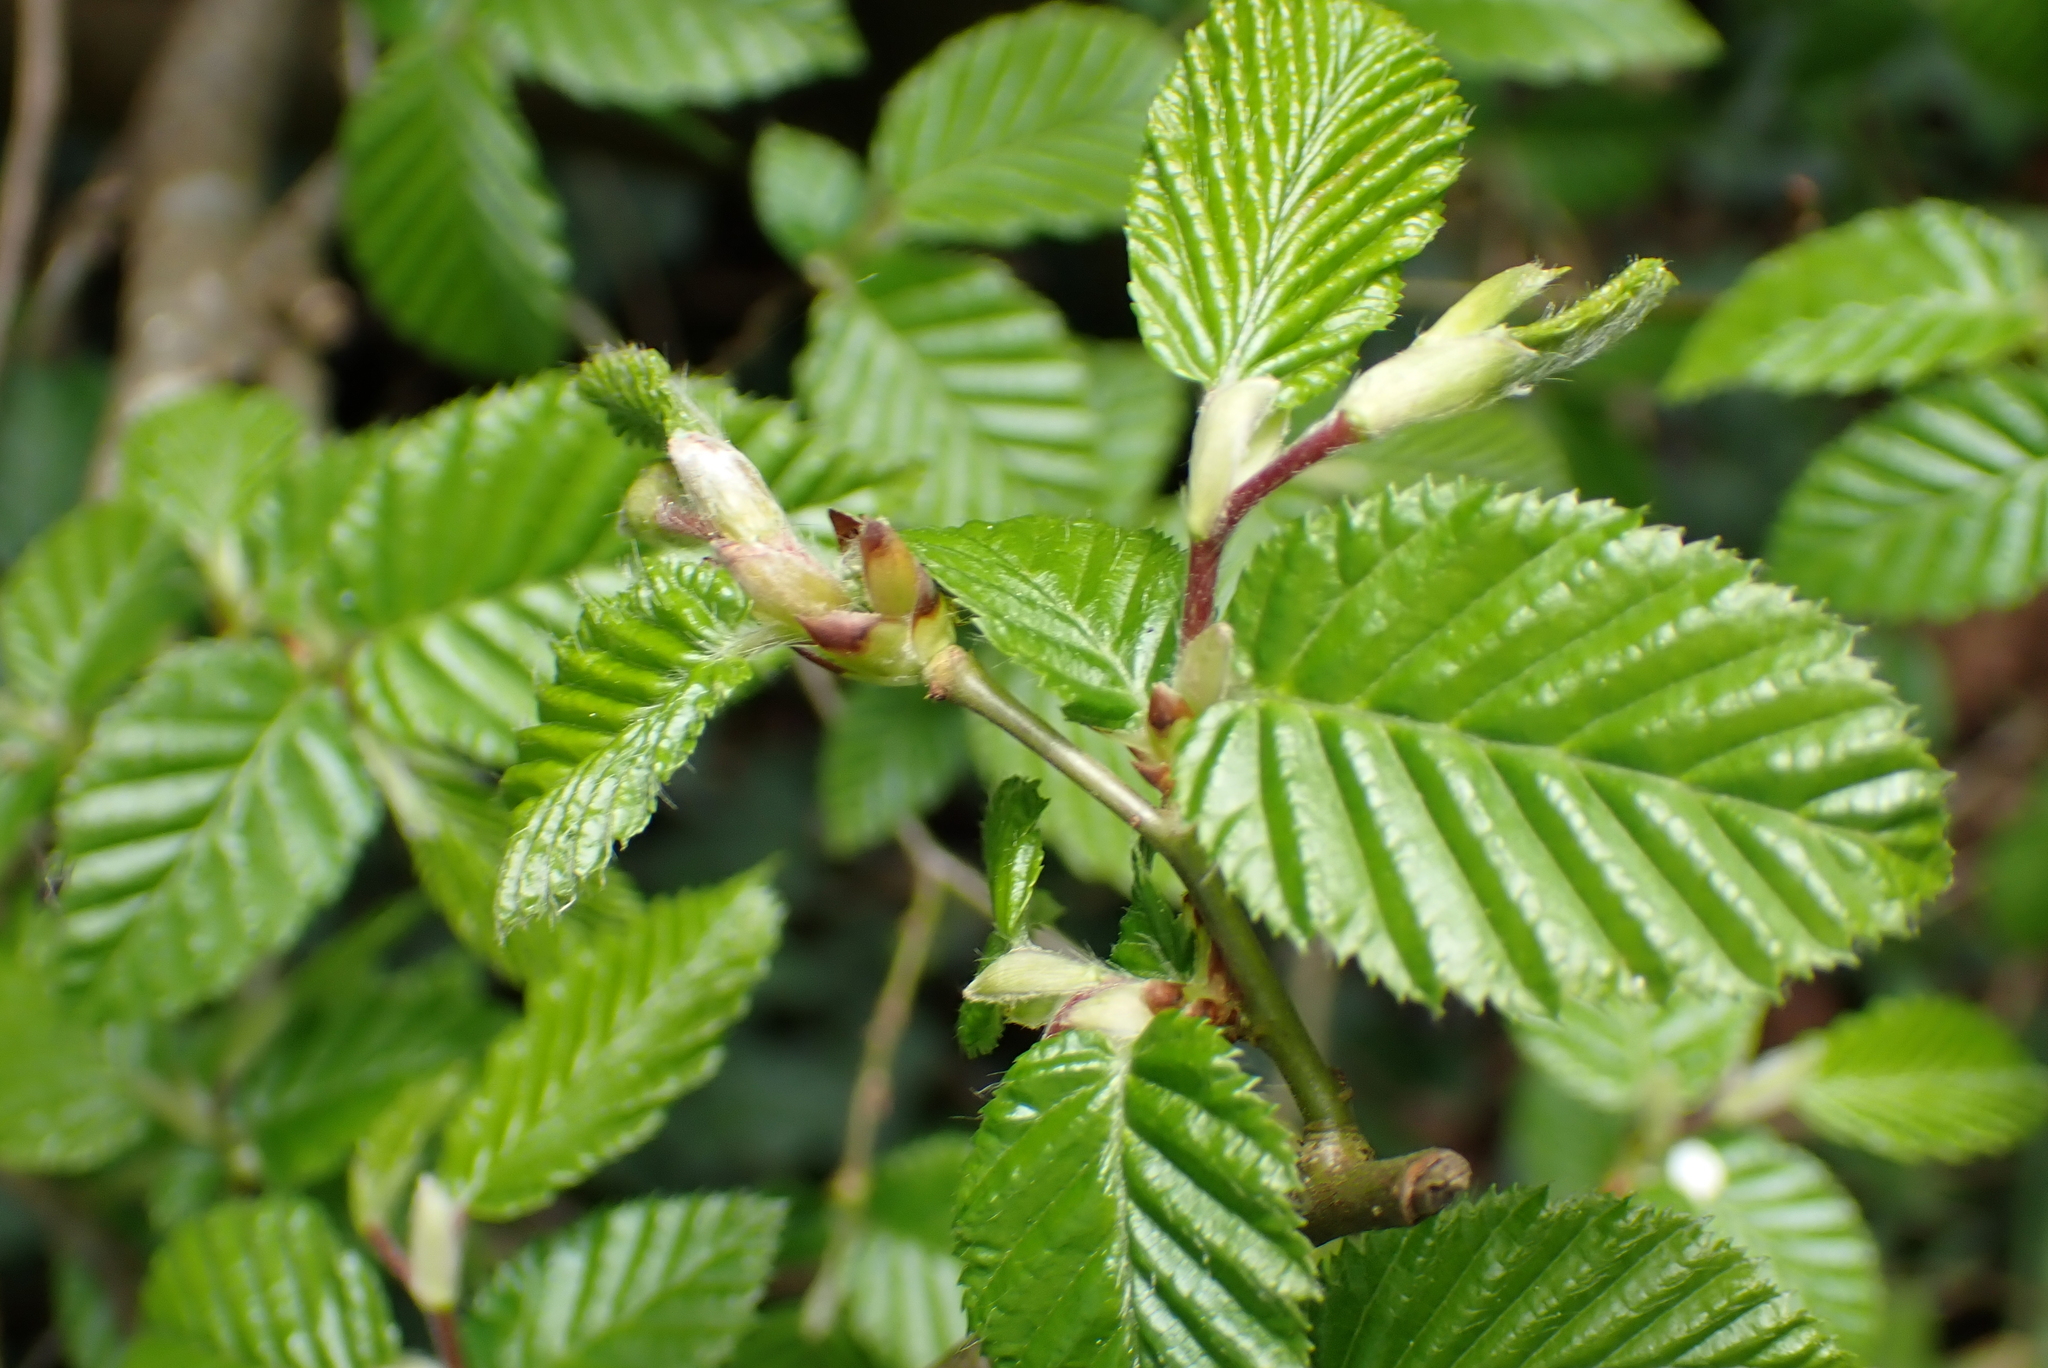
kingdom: Plantae
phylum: Tracheophyta
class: Magnoliopsida
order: Fagales
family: Betulaceae
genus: Carpinus
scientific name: Carpinus betulus
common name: Hornbeam
